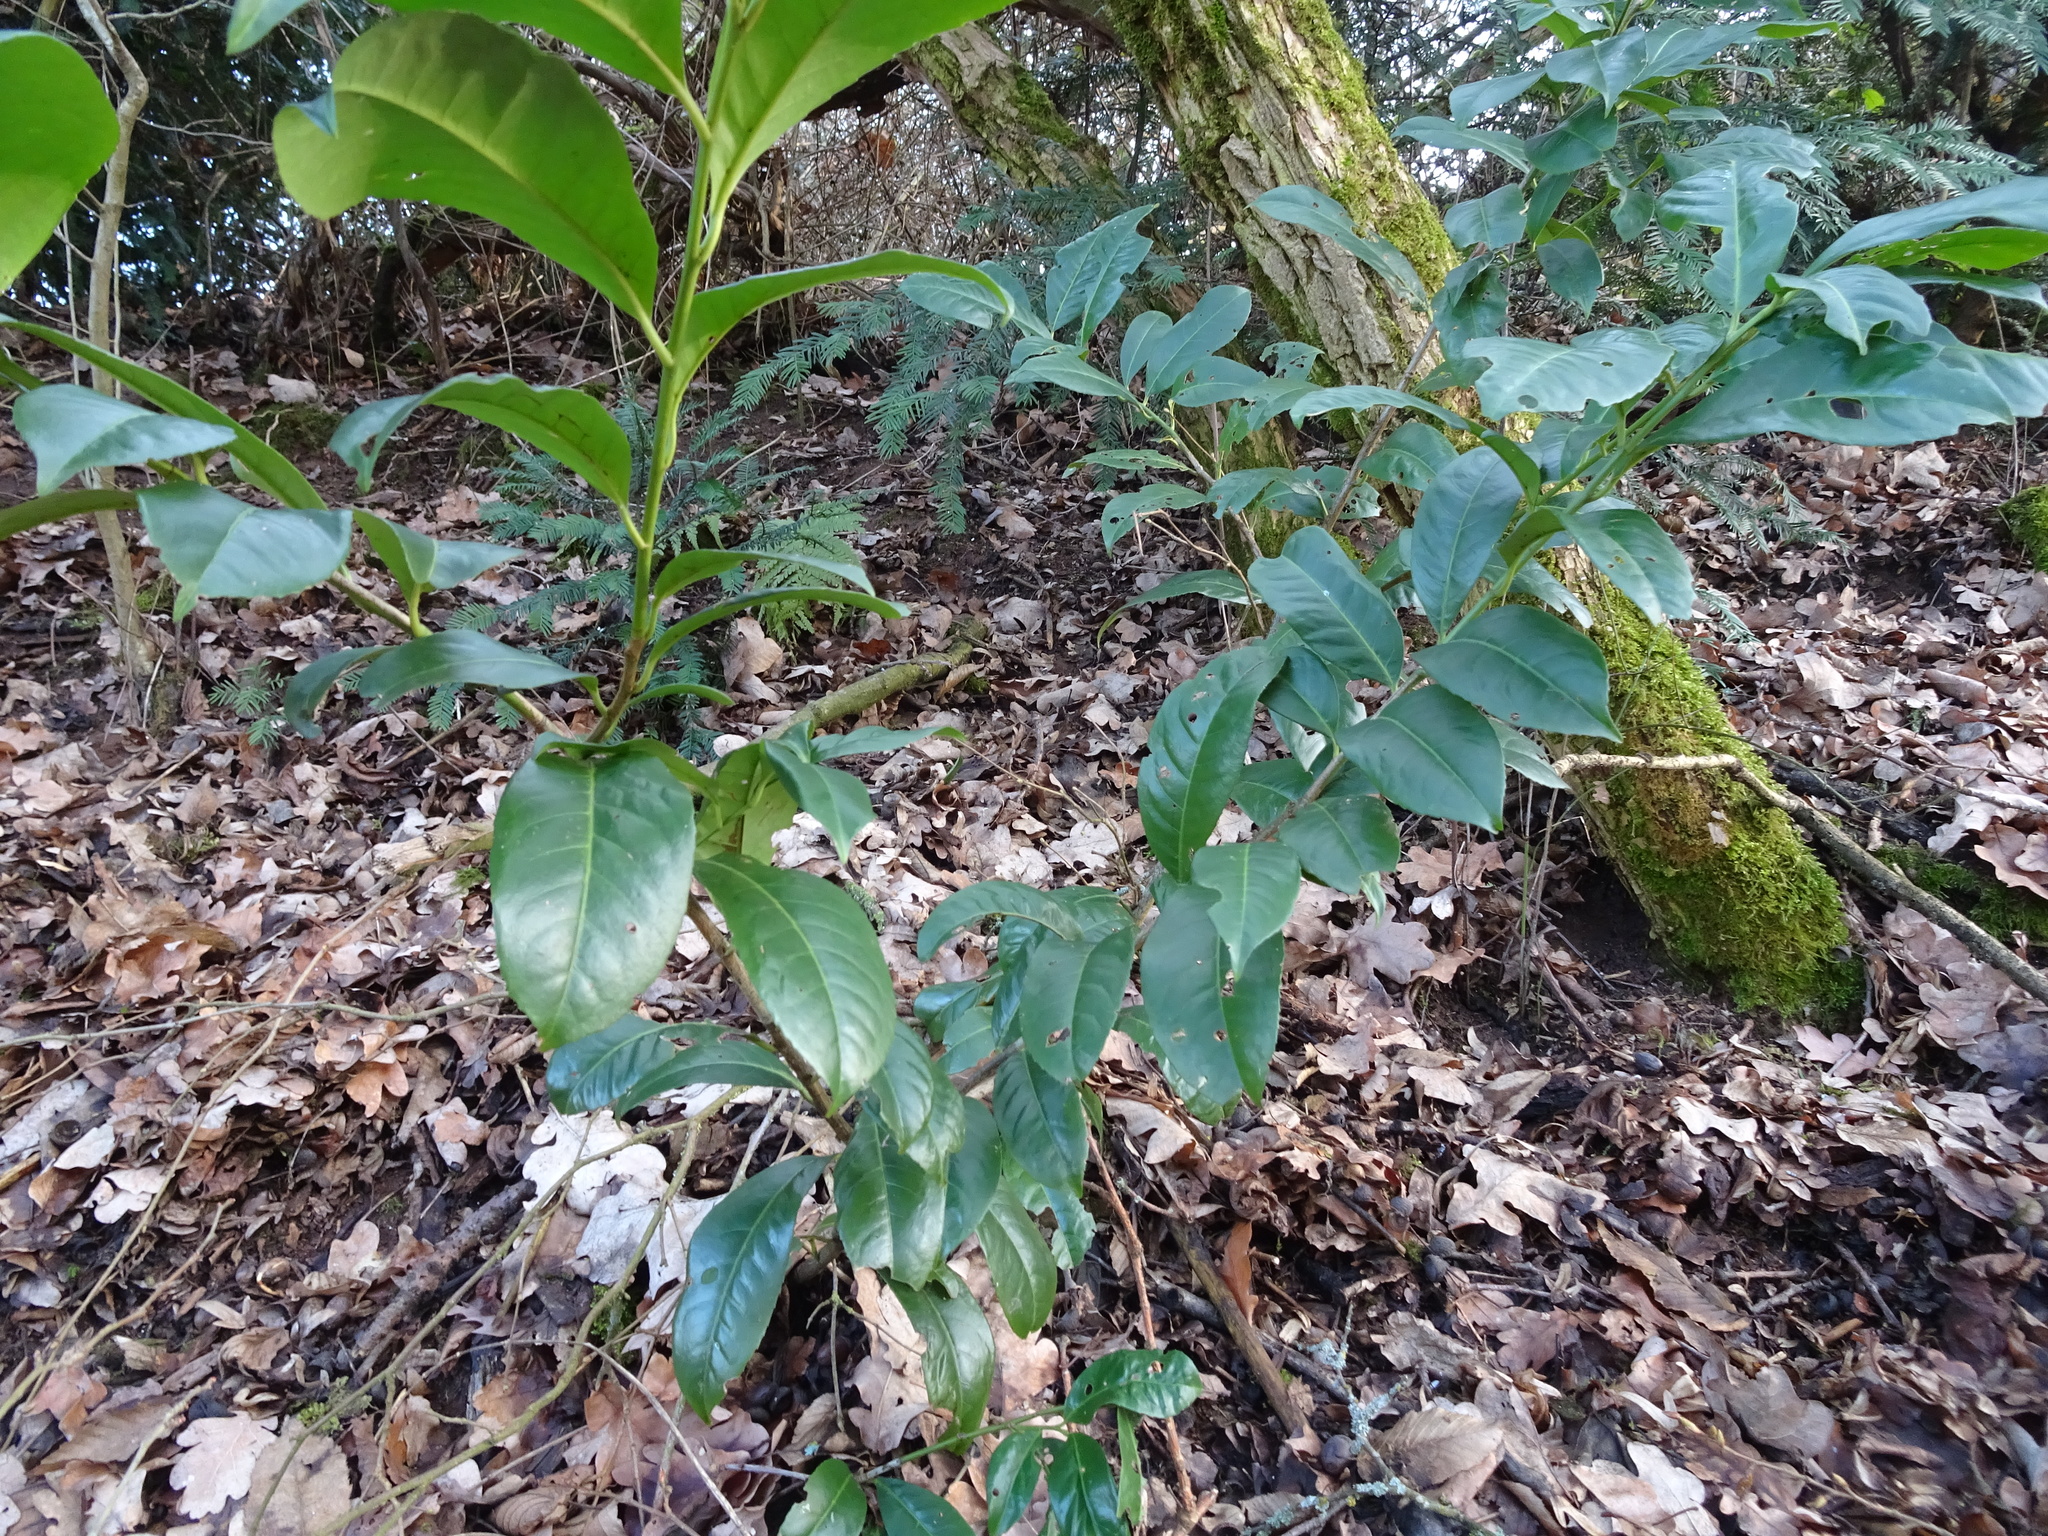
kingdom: Plantae
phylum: Tracheophyta
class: Magnoliopsida
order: Rosales
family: Rosaceae
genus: Prunus
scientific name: Prunus laurocerasus
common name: Cherry laurel
